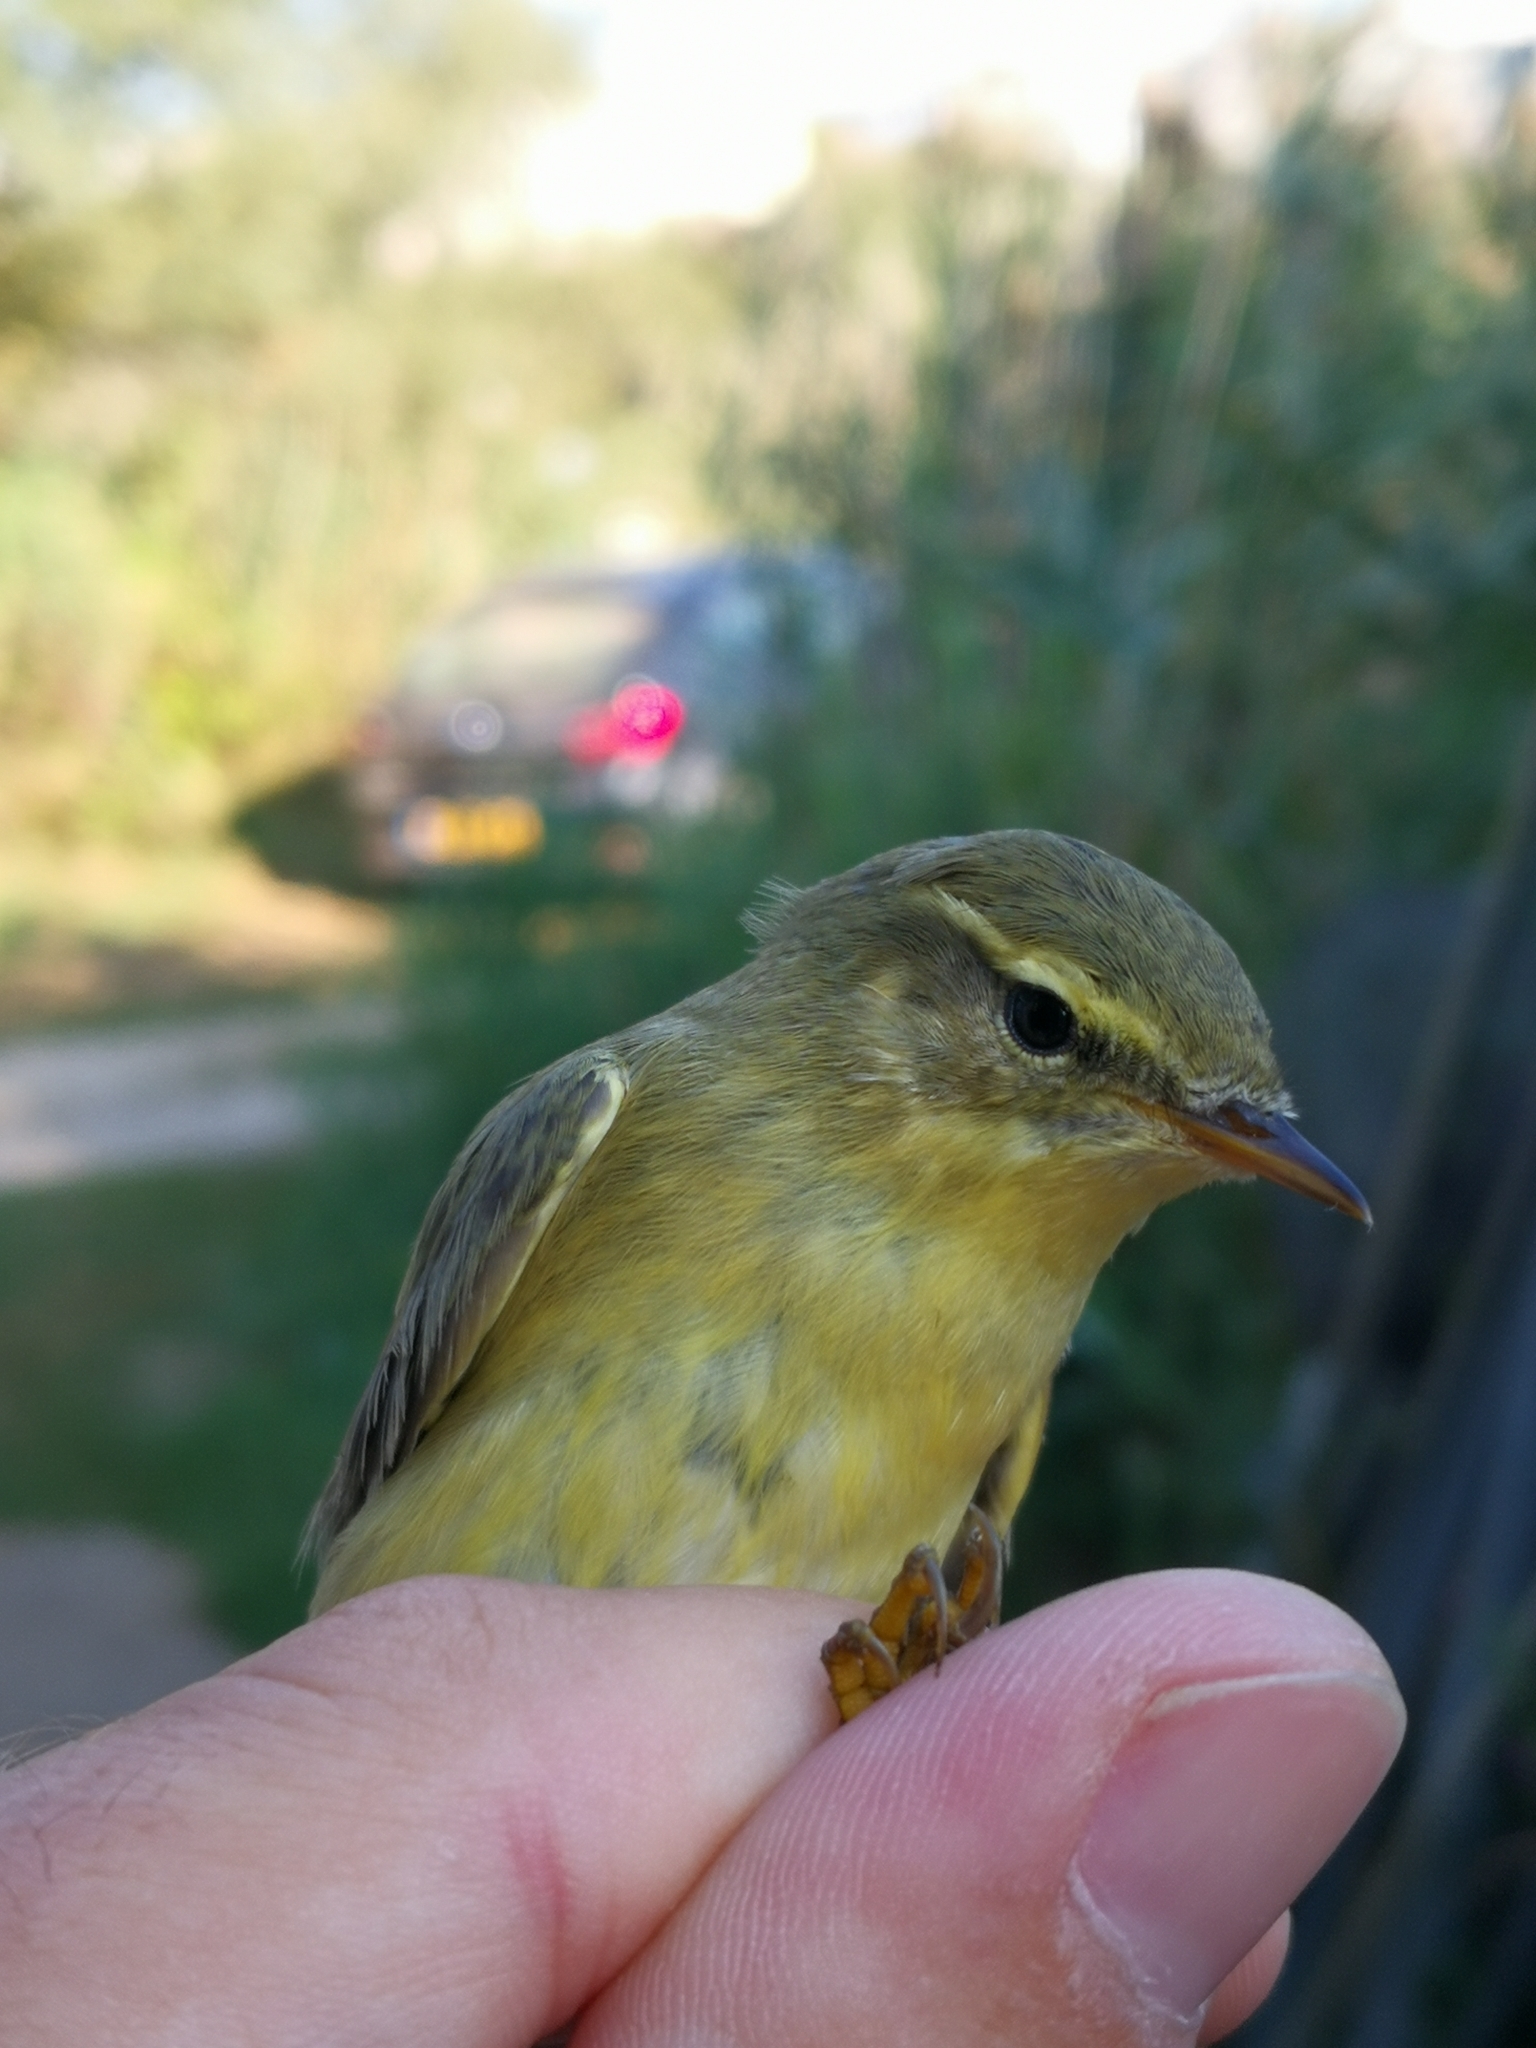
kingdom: Animalia
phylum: Chordata
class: Aves
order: Passeriformes
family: Phylloscopidae
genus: Phylloscopus
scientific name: Phylloscopus trochilus
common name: Willow warbler
